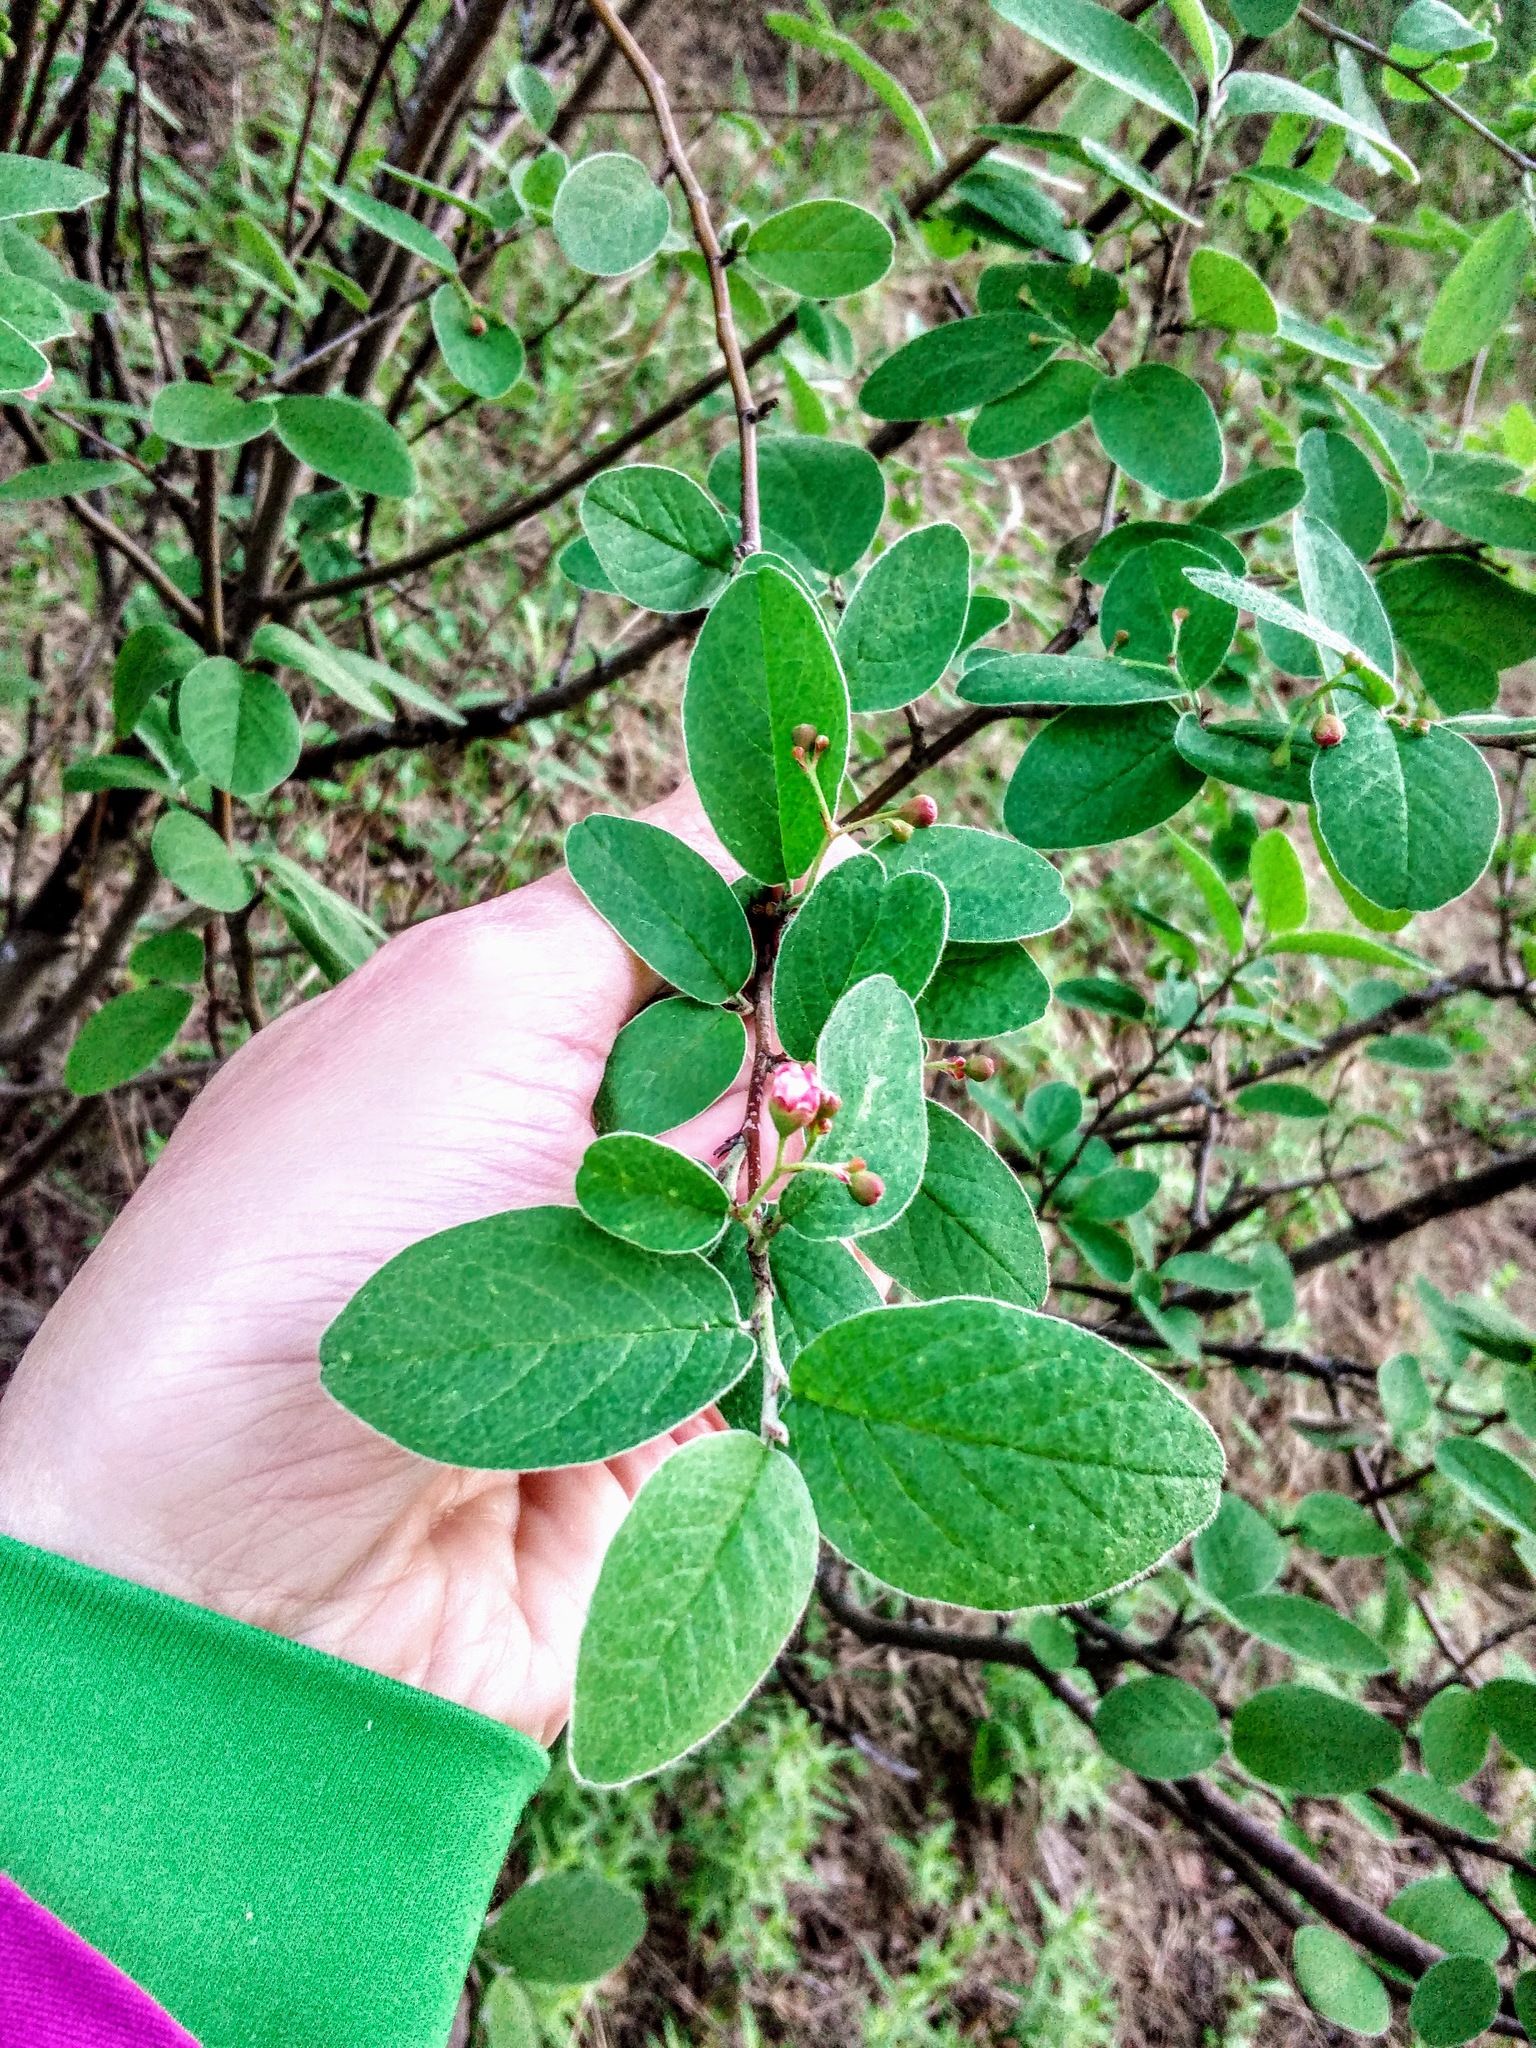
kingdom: Plantae
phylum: Tracheophyta
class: Magnoliopsida
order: Rosales
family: Rosaceae
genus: Cotoneaster
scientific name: Cotoneaster melanocarpus
